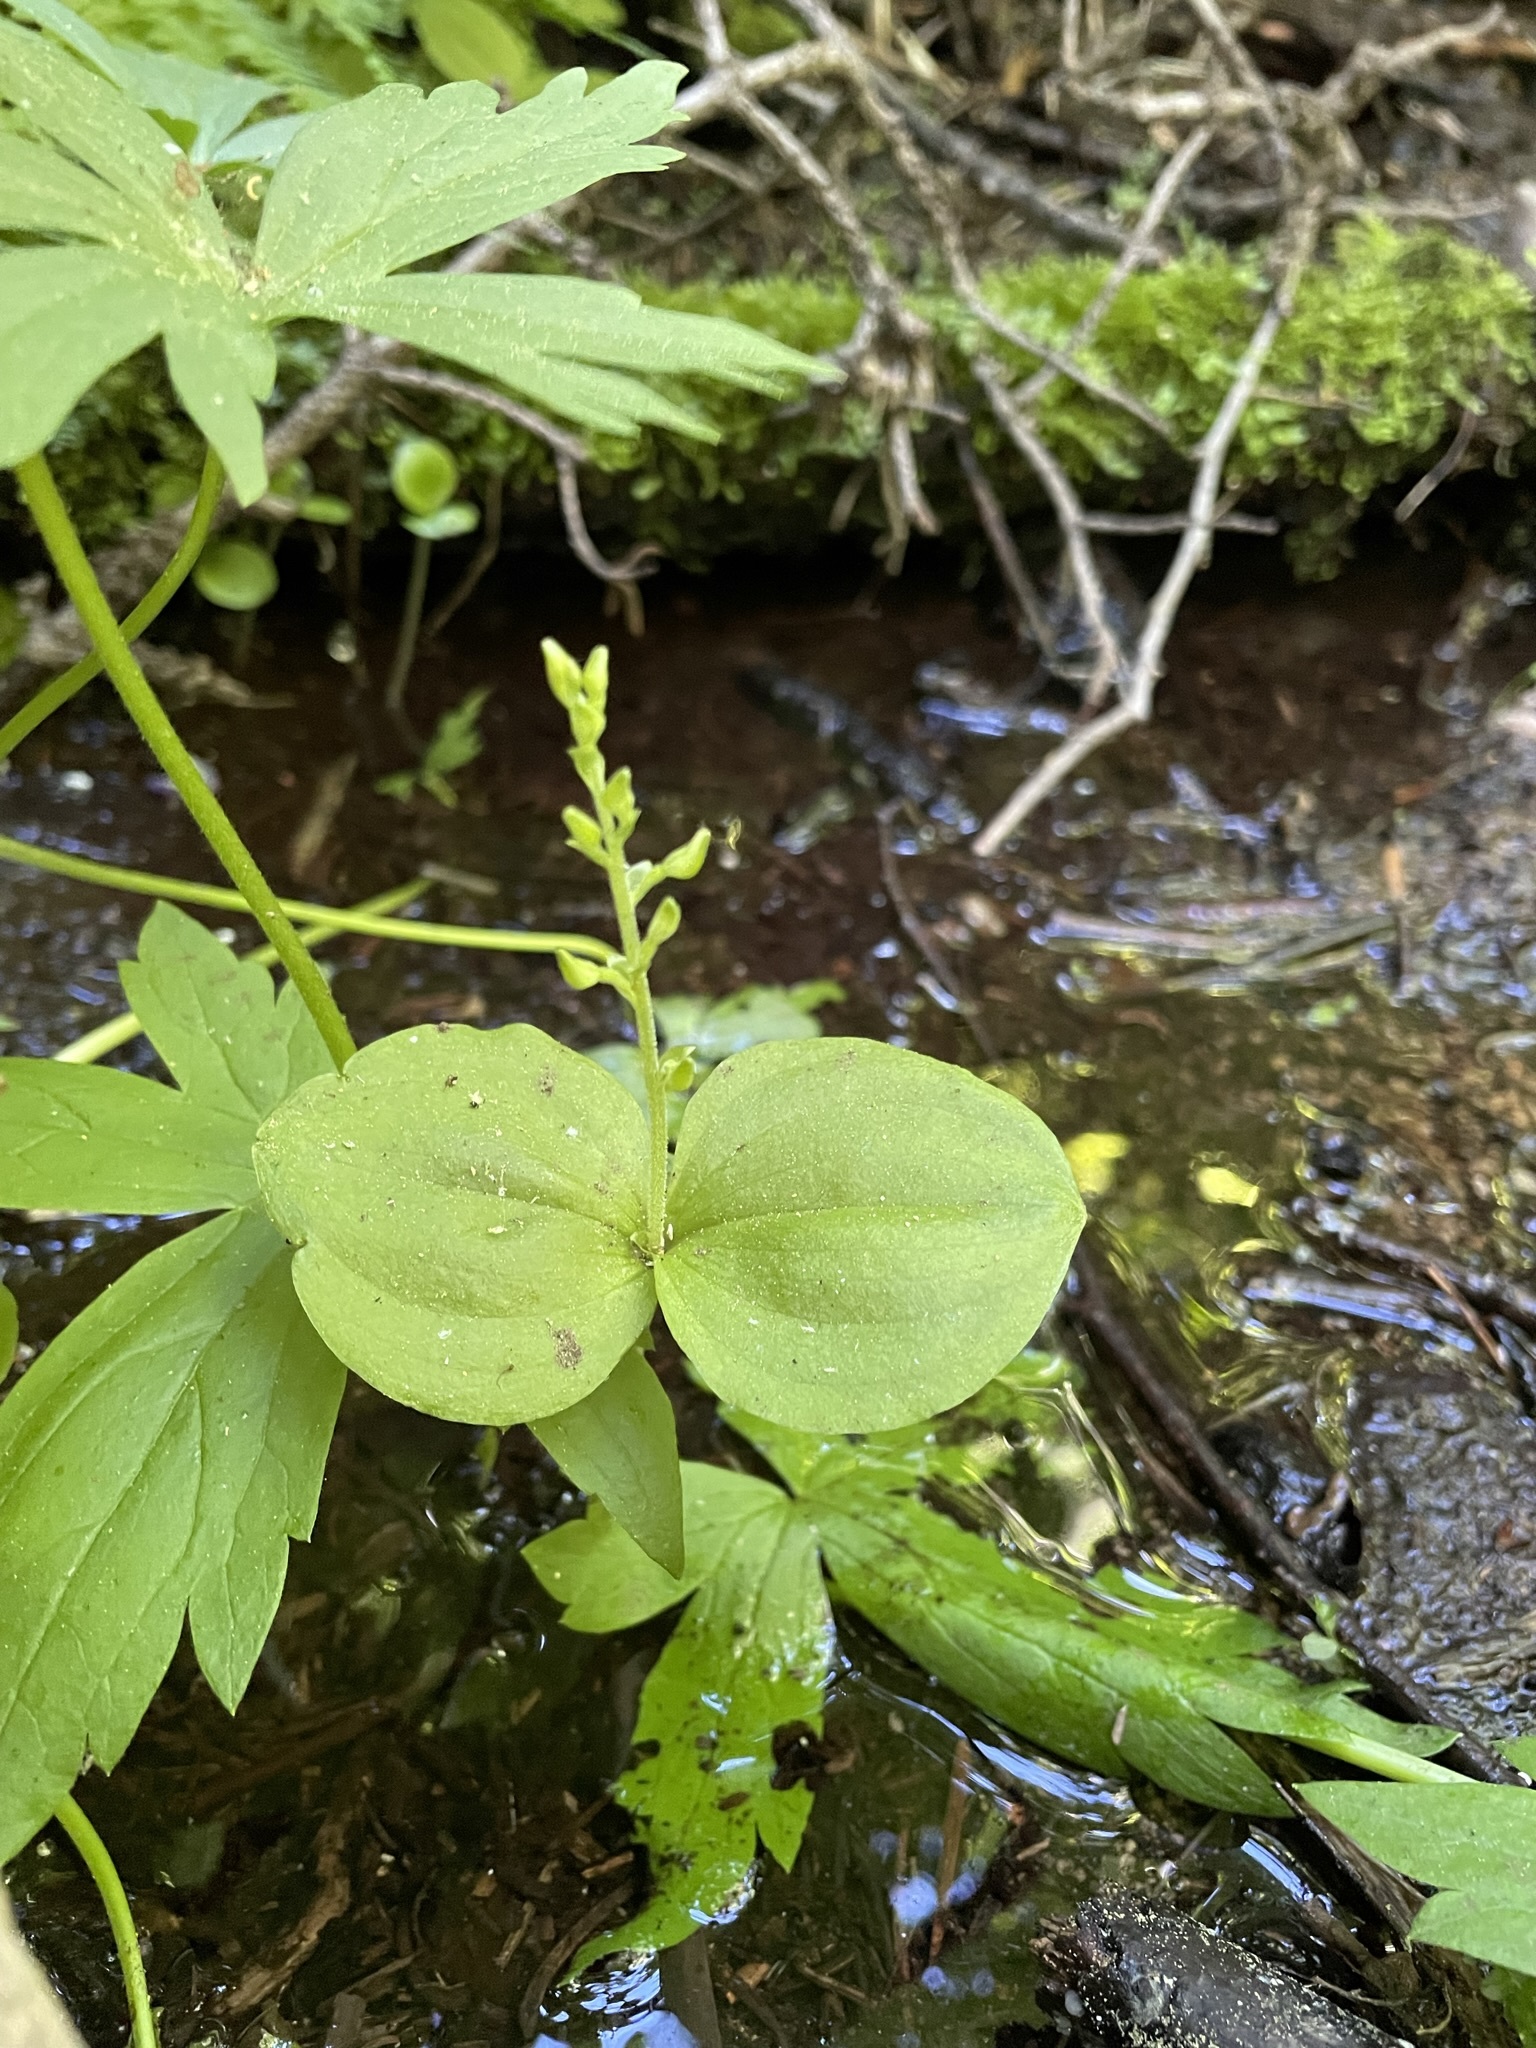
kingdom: Plantae
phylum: Tracheophyta
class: Liliopsida
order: Asparagales
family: Orchidaceae
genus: Neottia
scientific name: Neottia convallarioides
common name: Broadleaf twayblade
